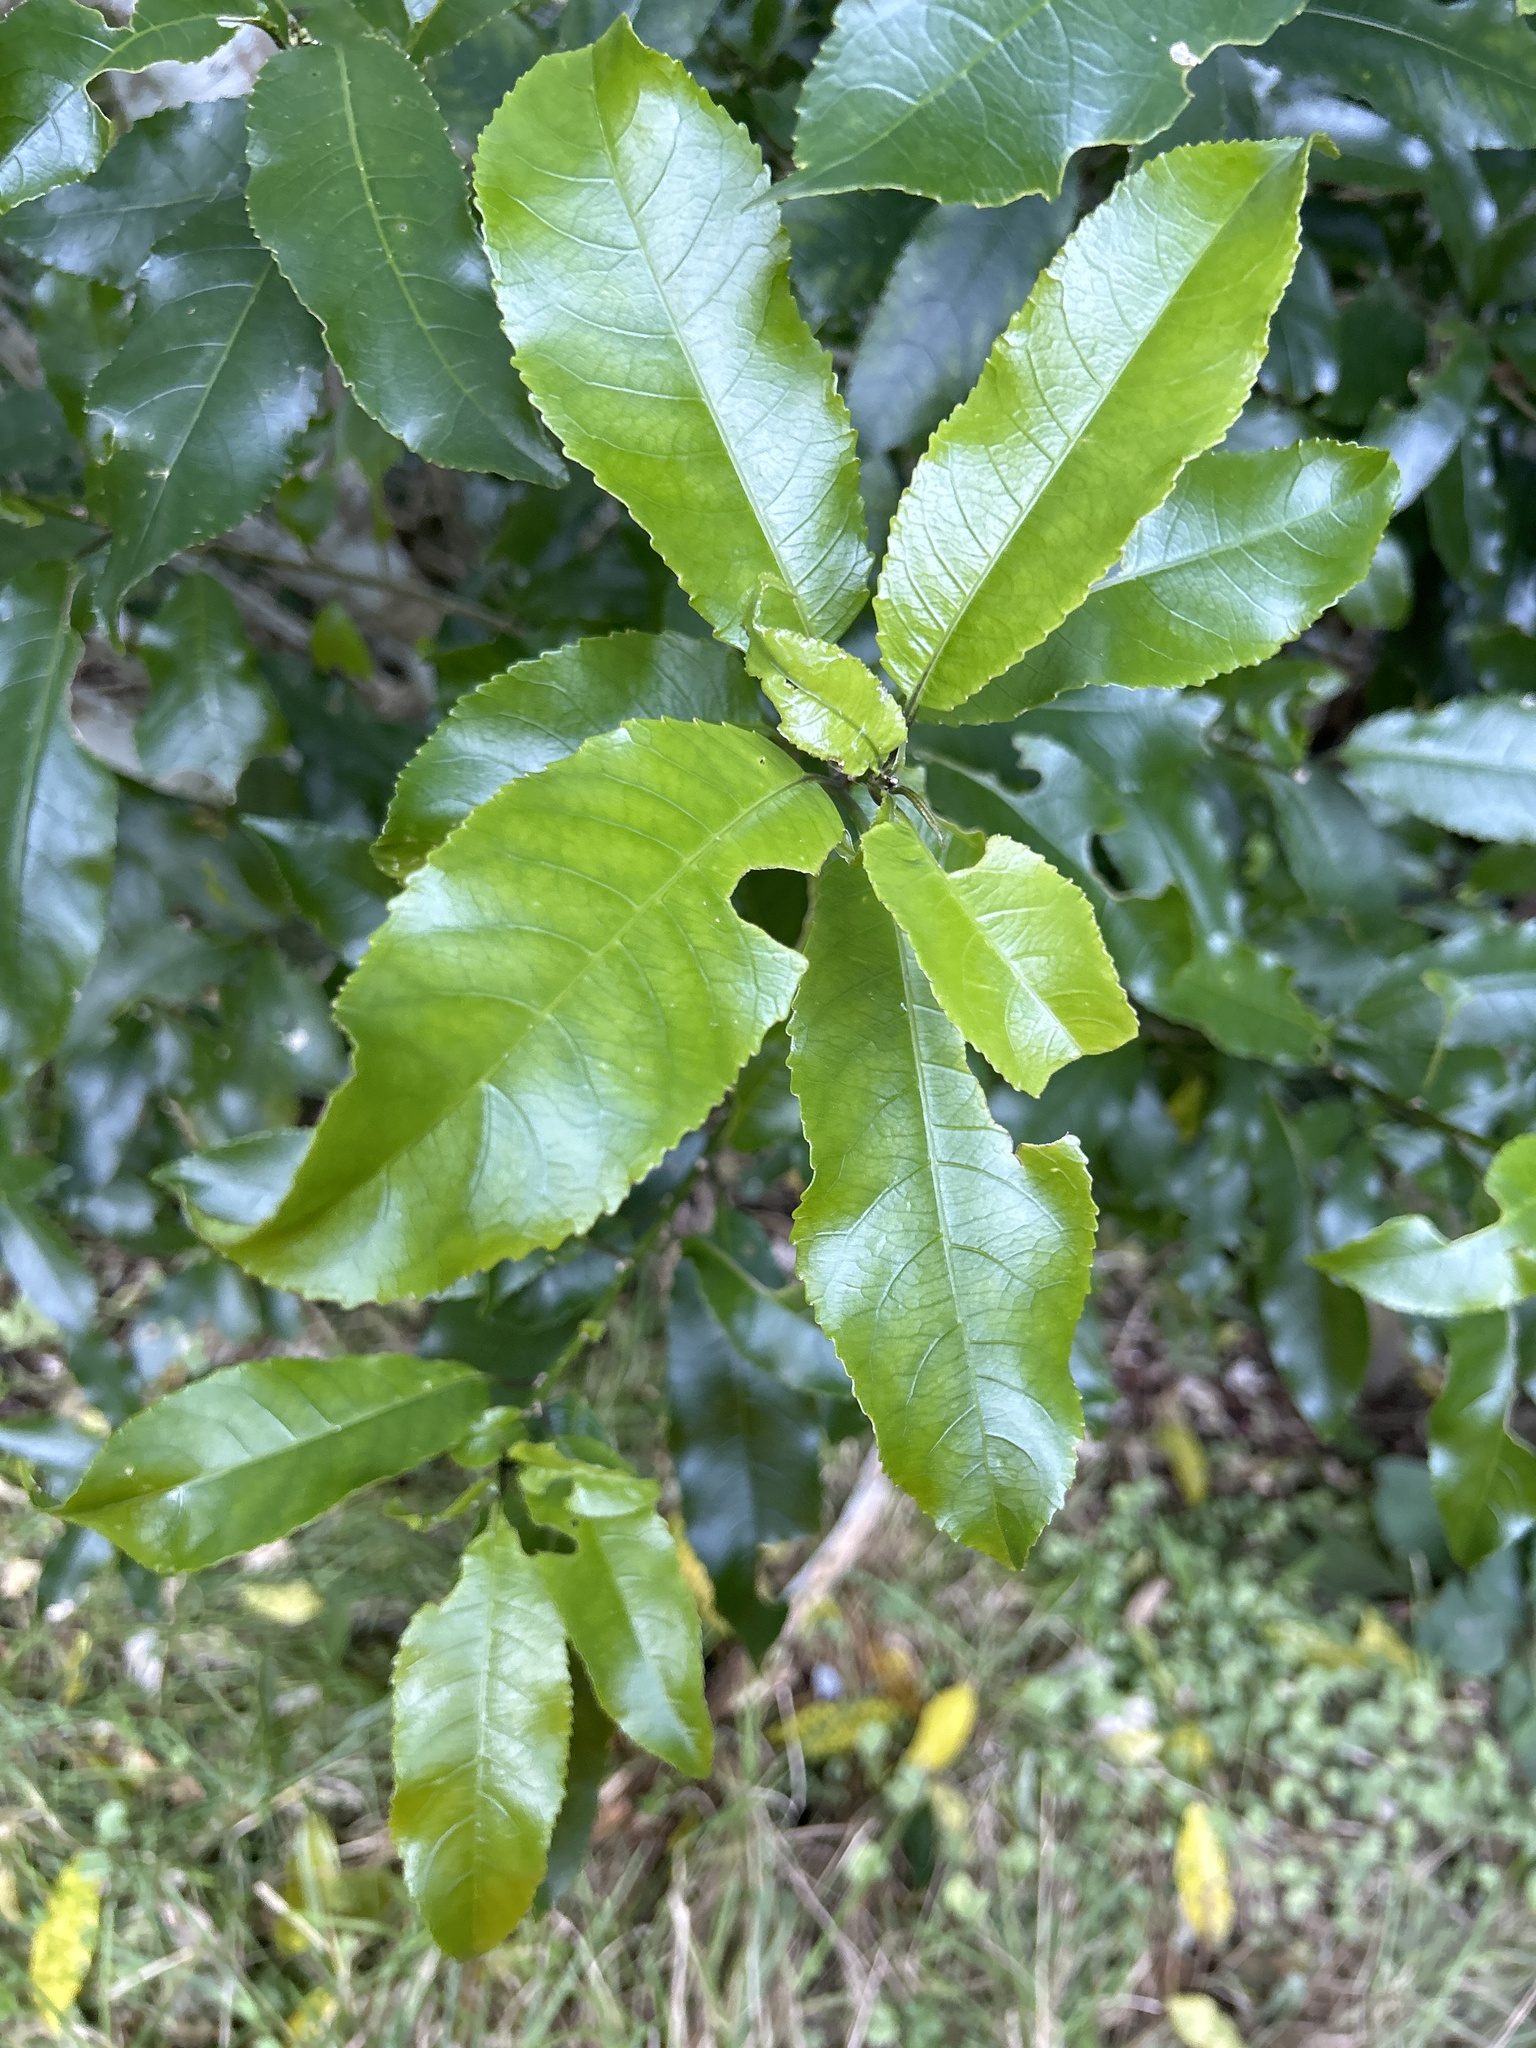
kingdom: Plantae
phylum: Tracheophyta
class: Magnoliopsida
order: Malpighiales
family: Violaceae
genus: Melicytus
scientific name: Melicytus ramiflorus
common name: Mahoe
